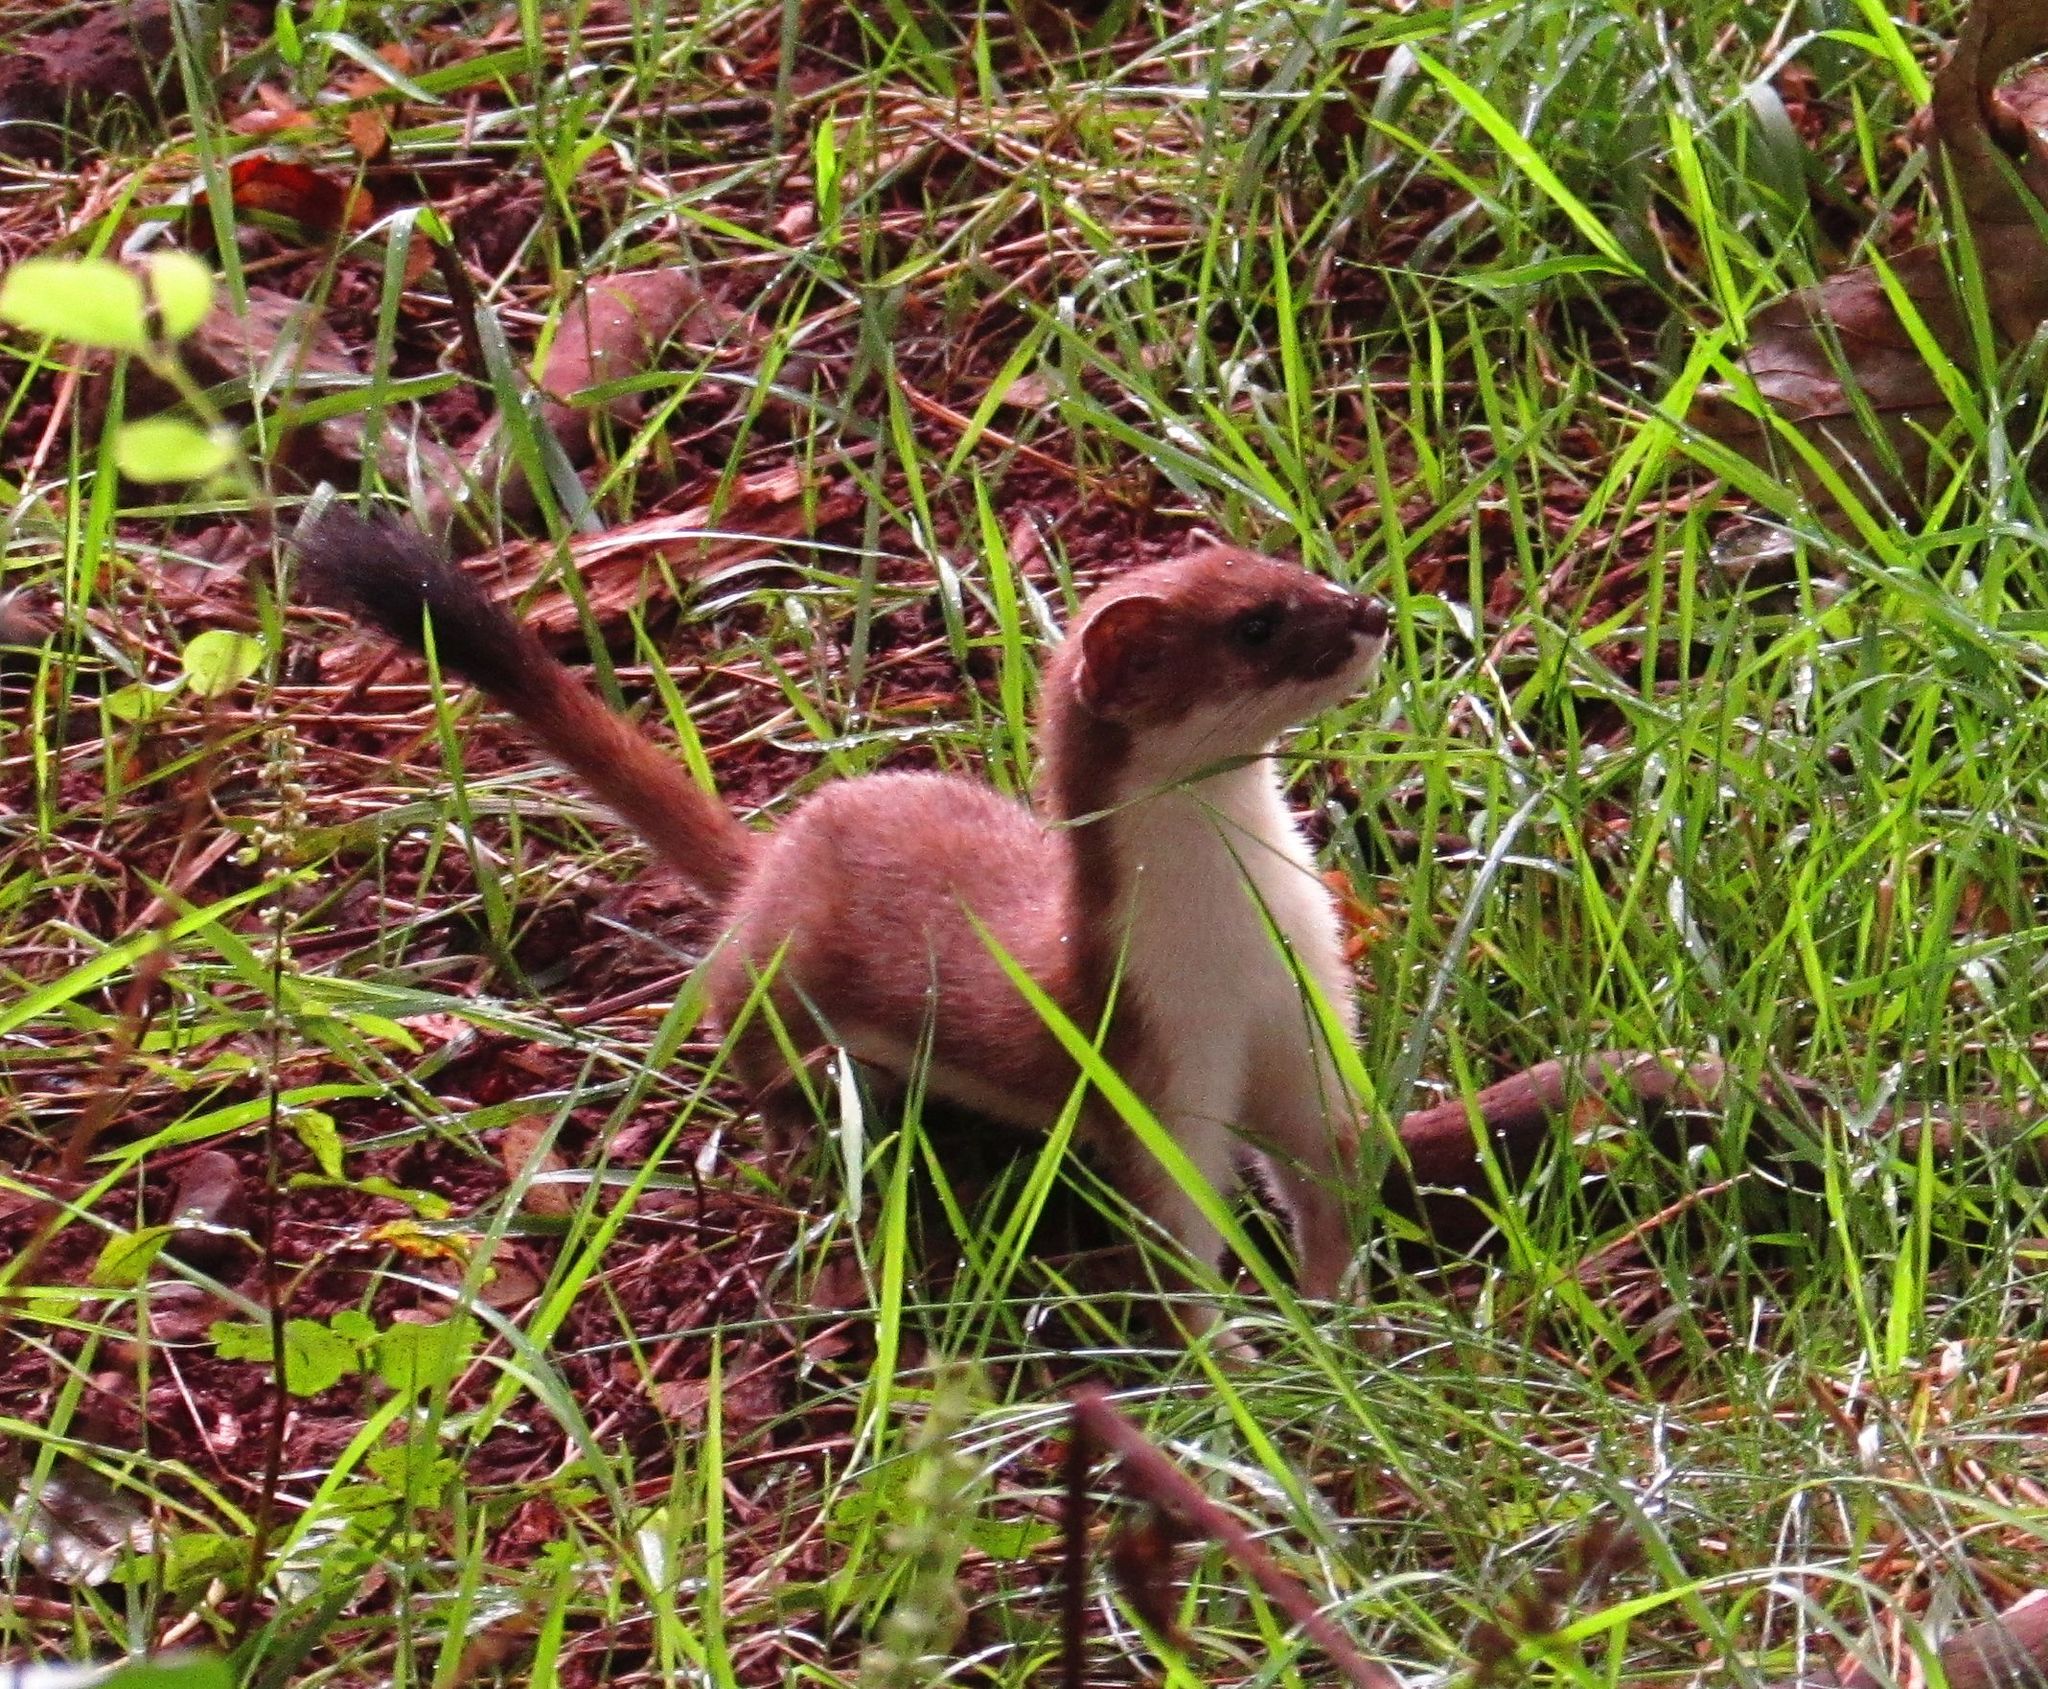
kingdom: Animalia
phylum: Chordata
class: Mammalia
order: Carnivora
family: Mustelidae
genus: Mustela
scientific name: Mustela erminea
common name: Stoat
